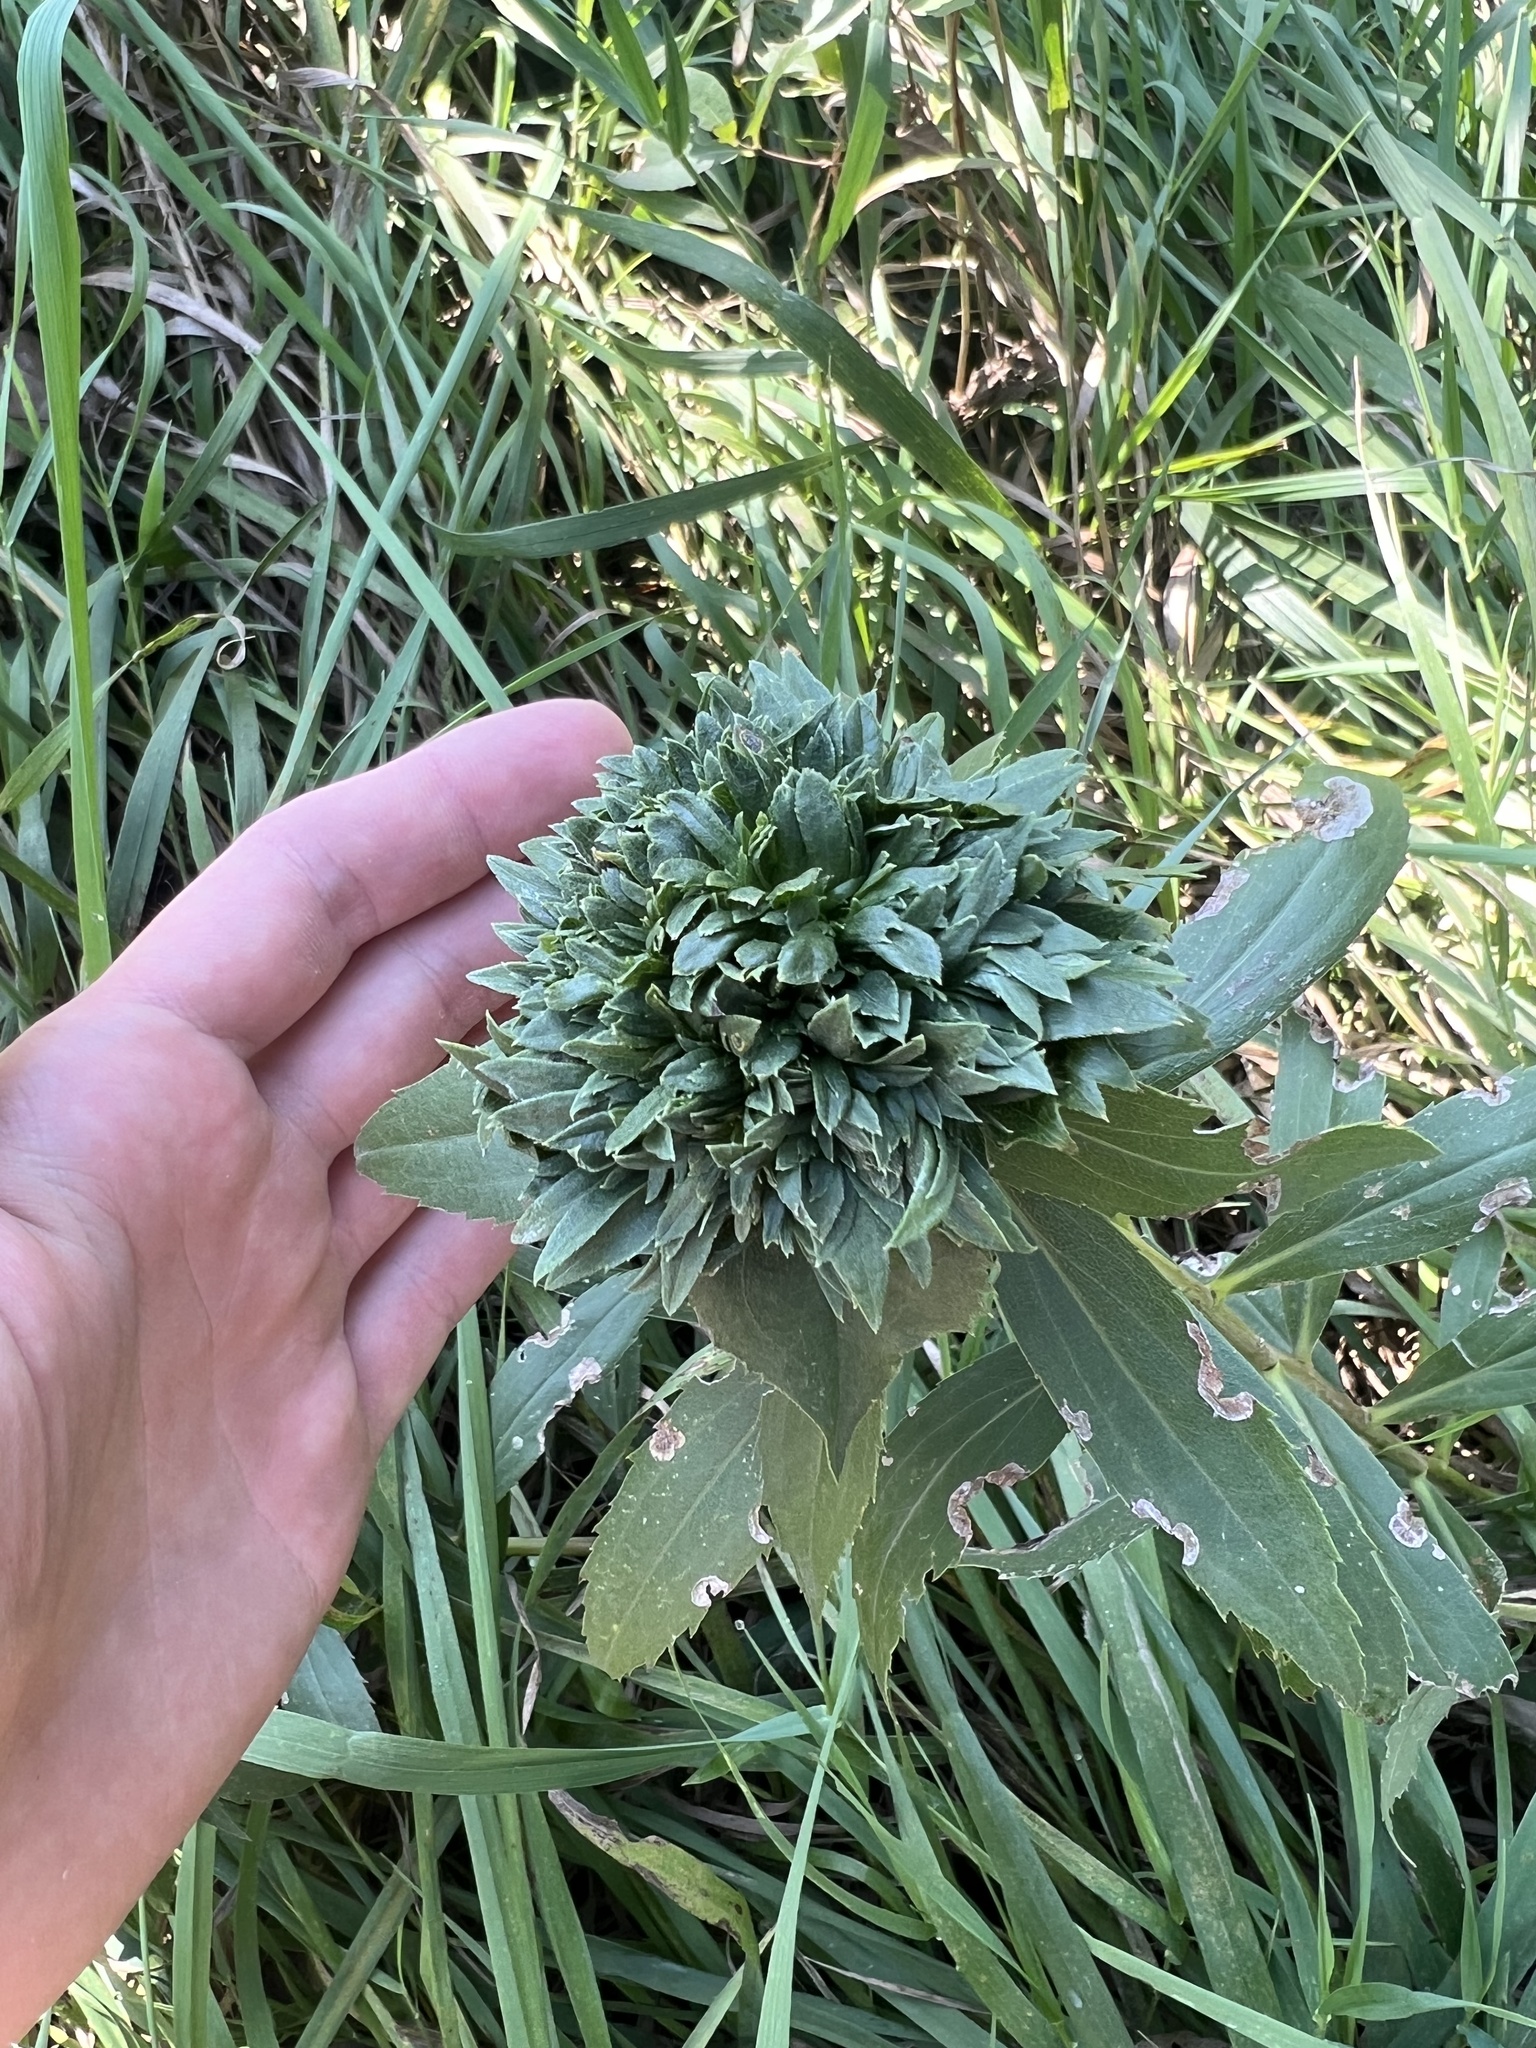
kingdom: Animalia
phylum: Arthropoda
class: Insecta
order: Diptera
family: Cecidomyiidae
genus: Rhopalomyia
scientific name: Rhopalomyia capitata
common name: Giant goldenrod bunch gall midge
